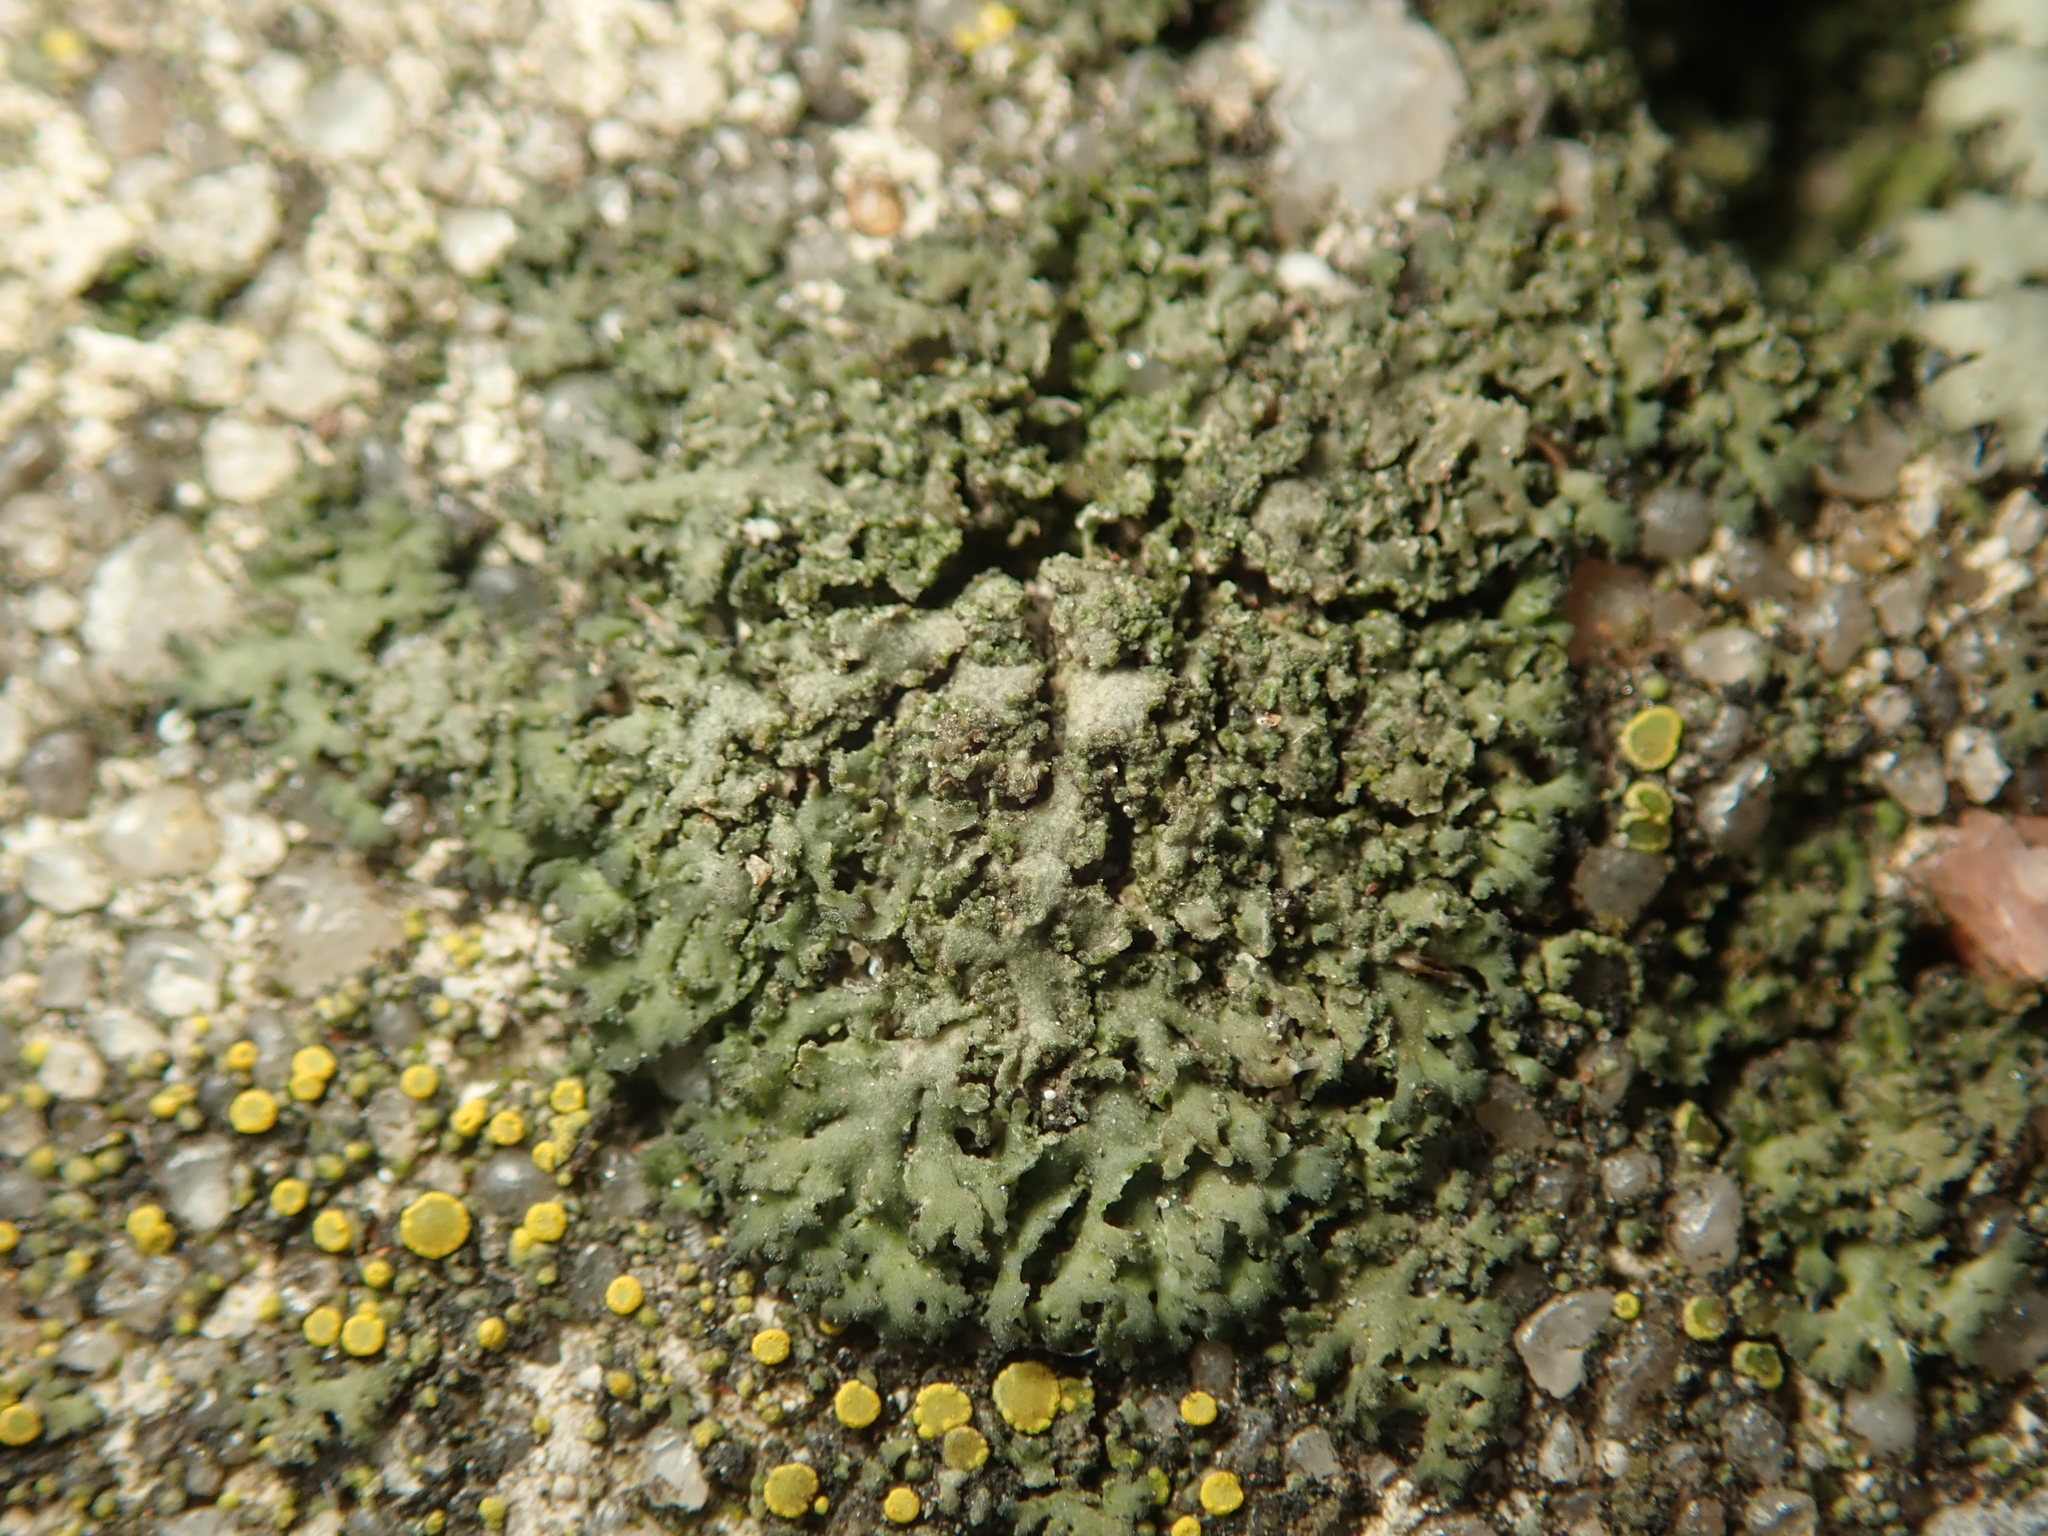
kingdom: Fungi
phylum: Ascomycota
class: Lecanoromycetes
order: Caliciales
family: Physciaceae
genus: Physciella
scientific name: Physciella nigricans
